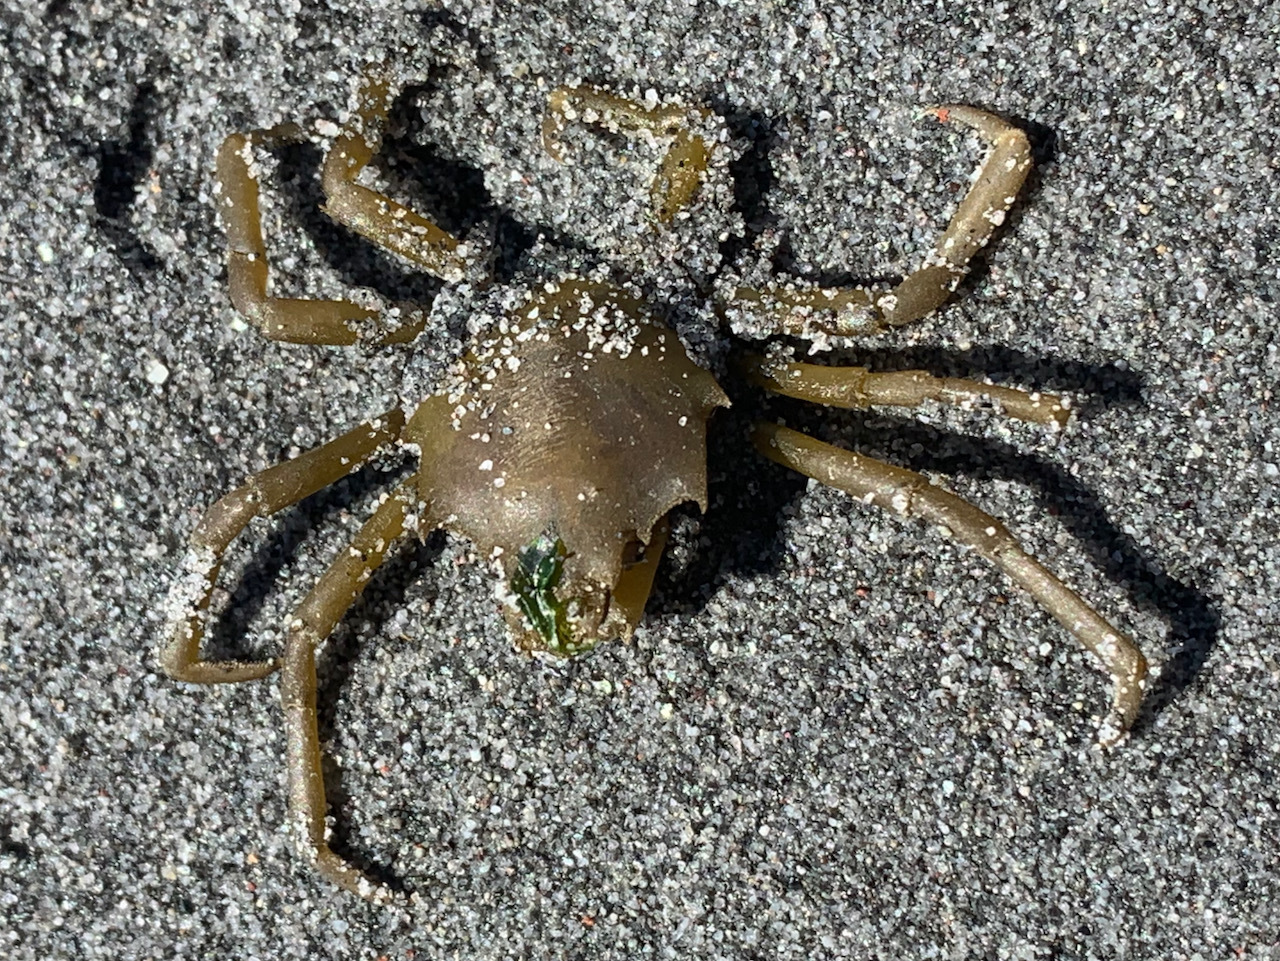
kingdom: Animalia
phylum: Arthropoda
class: Malacostraca
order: Decapoda
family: Epialtidae
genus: Pugettia
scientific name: Pugettia producta
